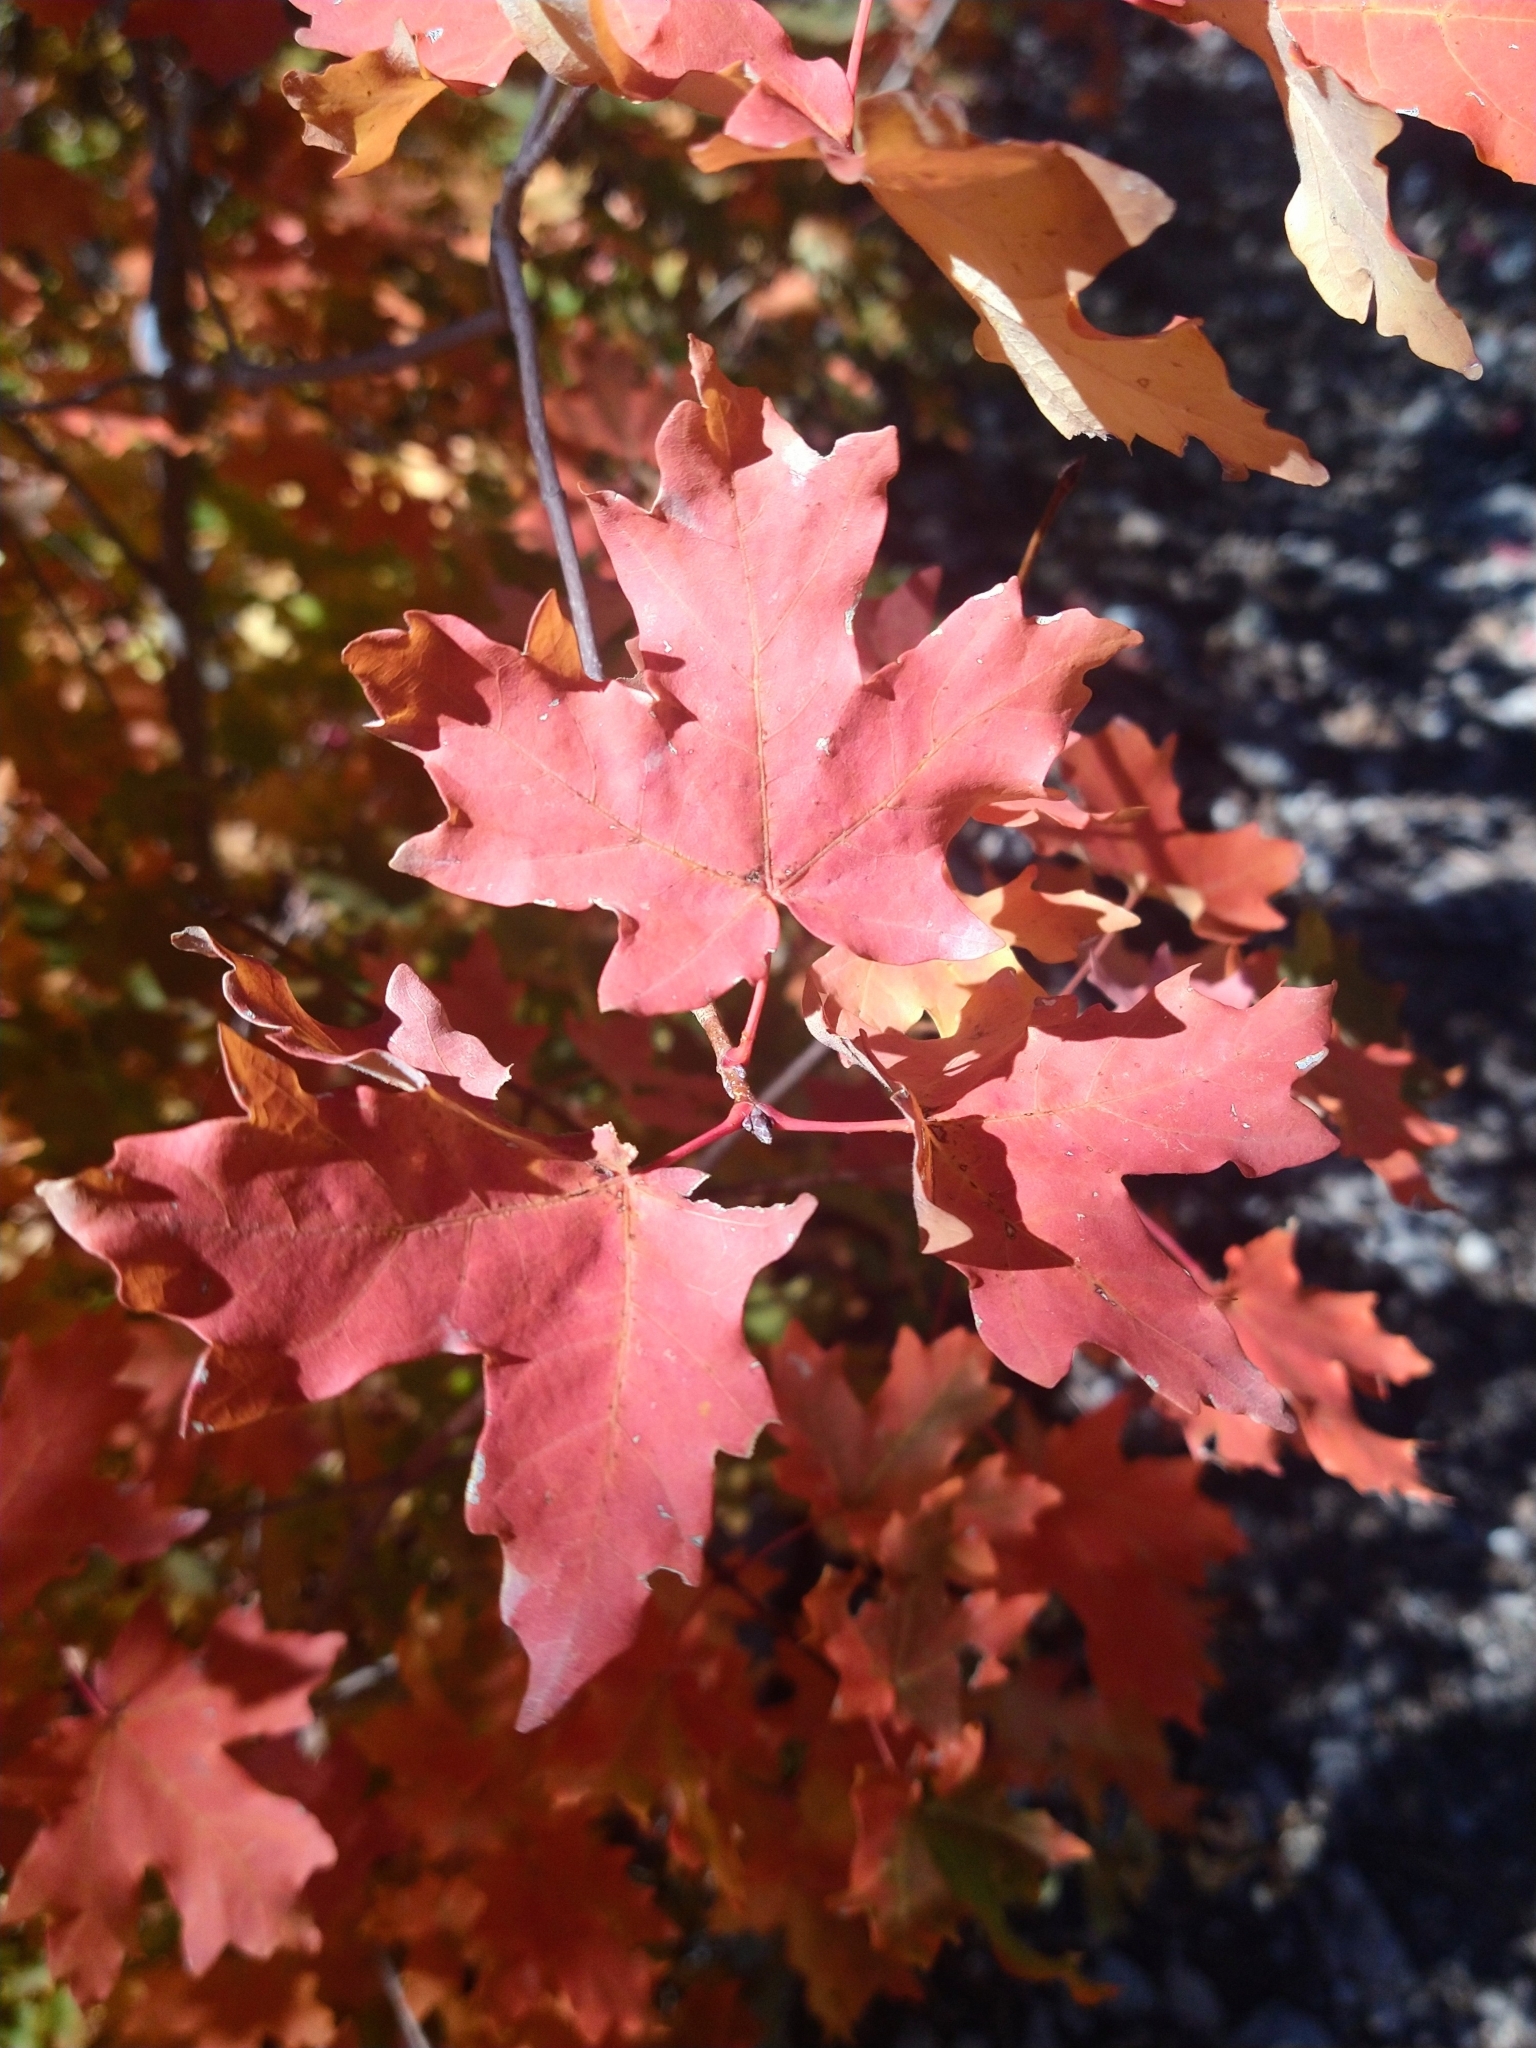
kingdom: Plantae
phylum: Tracheophyta
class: Magnoliopsida
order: Sapindales
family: Sapindaceae
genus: Acer
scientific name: Acer grandidentatum
